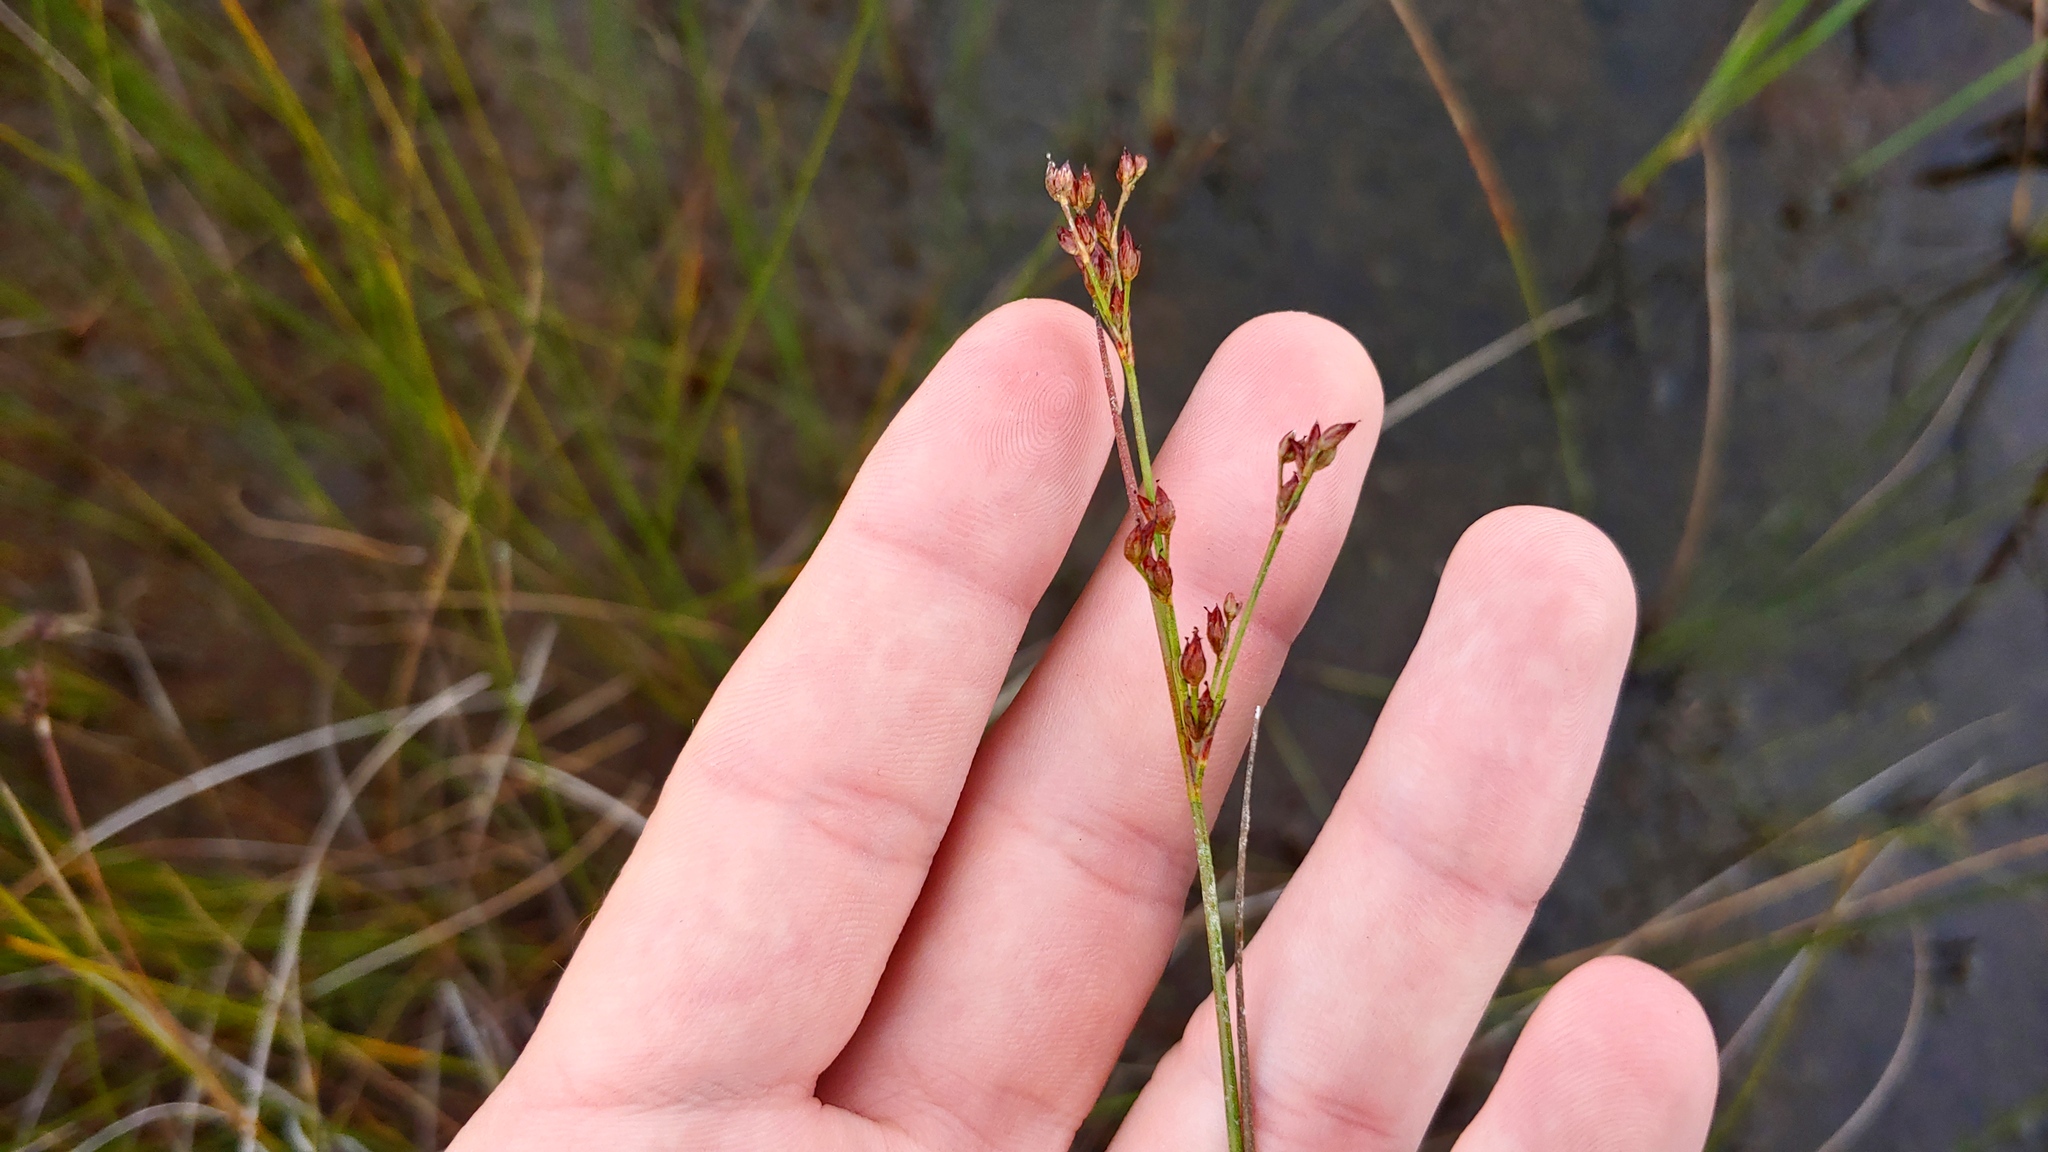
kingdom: Plantae
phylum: Tracheophyta
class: Liliopsida
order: Poales
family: Juncaceae
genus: Juncus
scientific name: Juncus alpinoarticulatus
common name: Alpine rush
